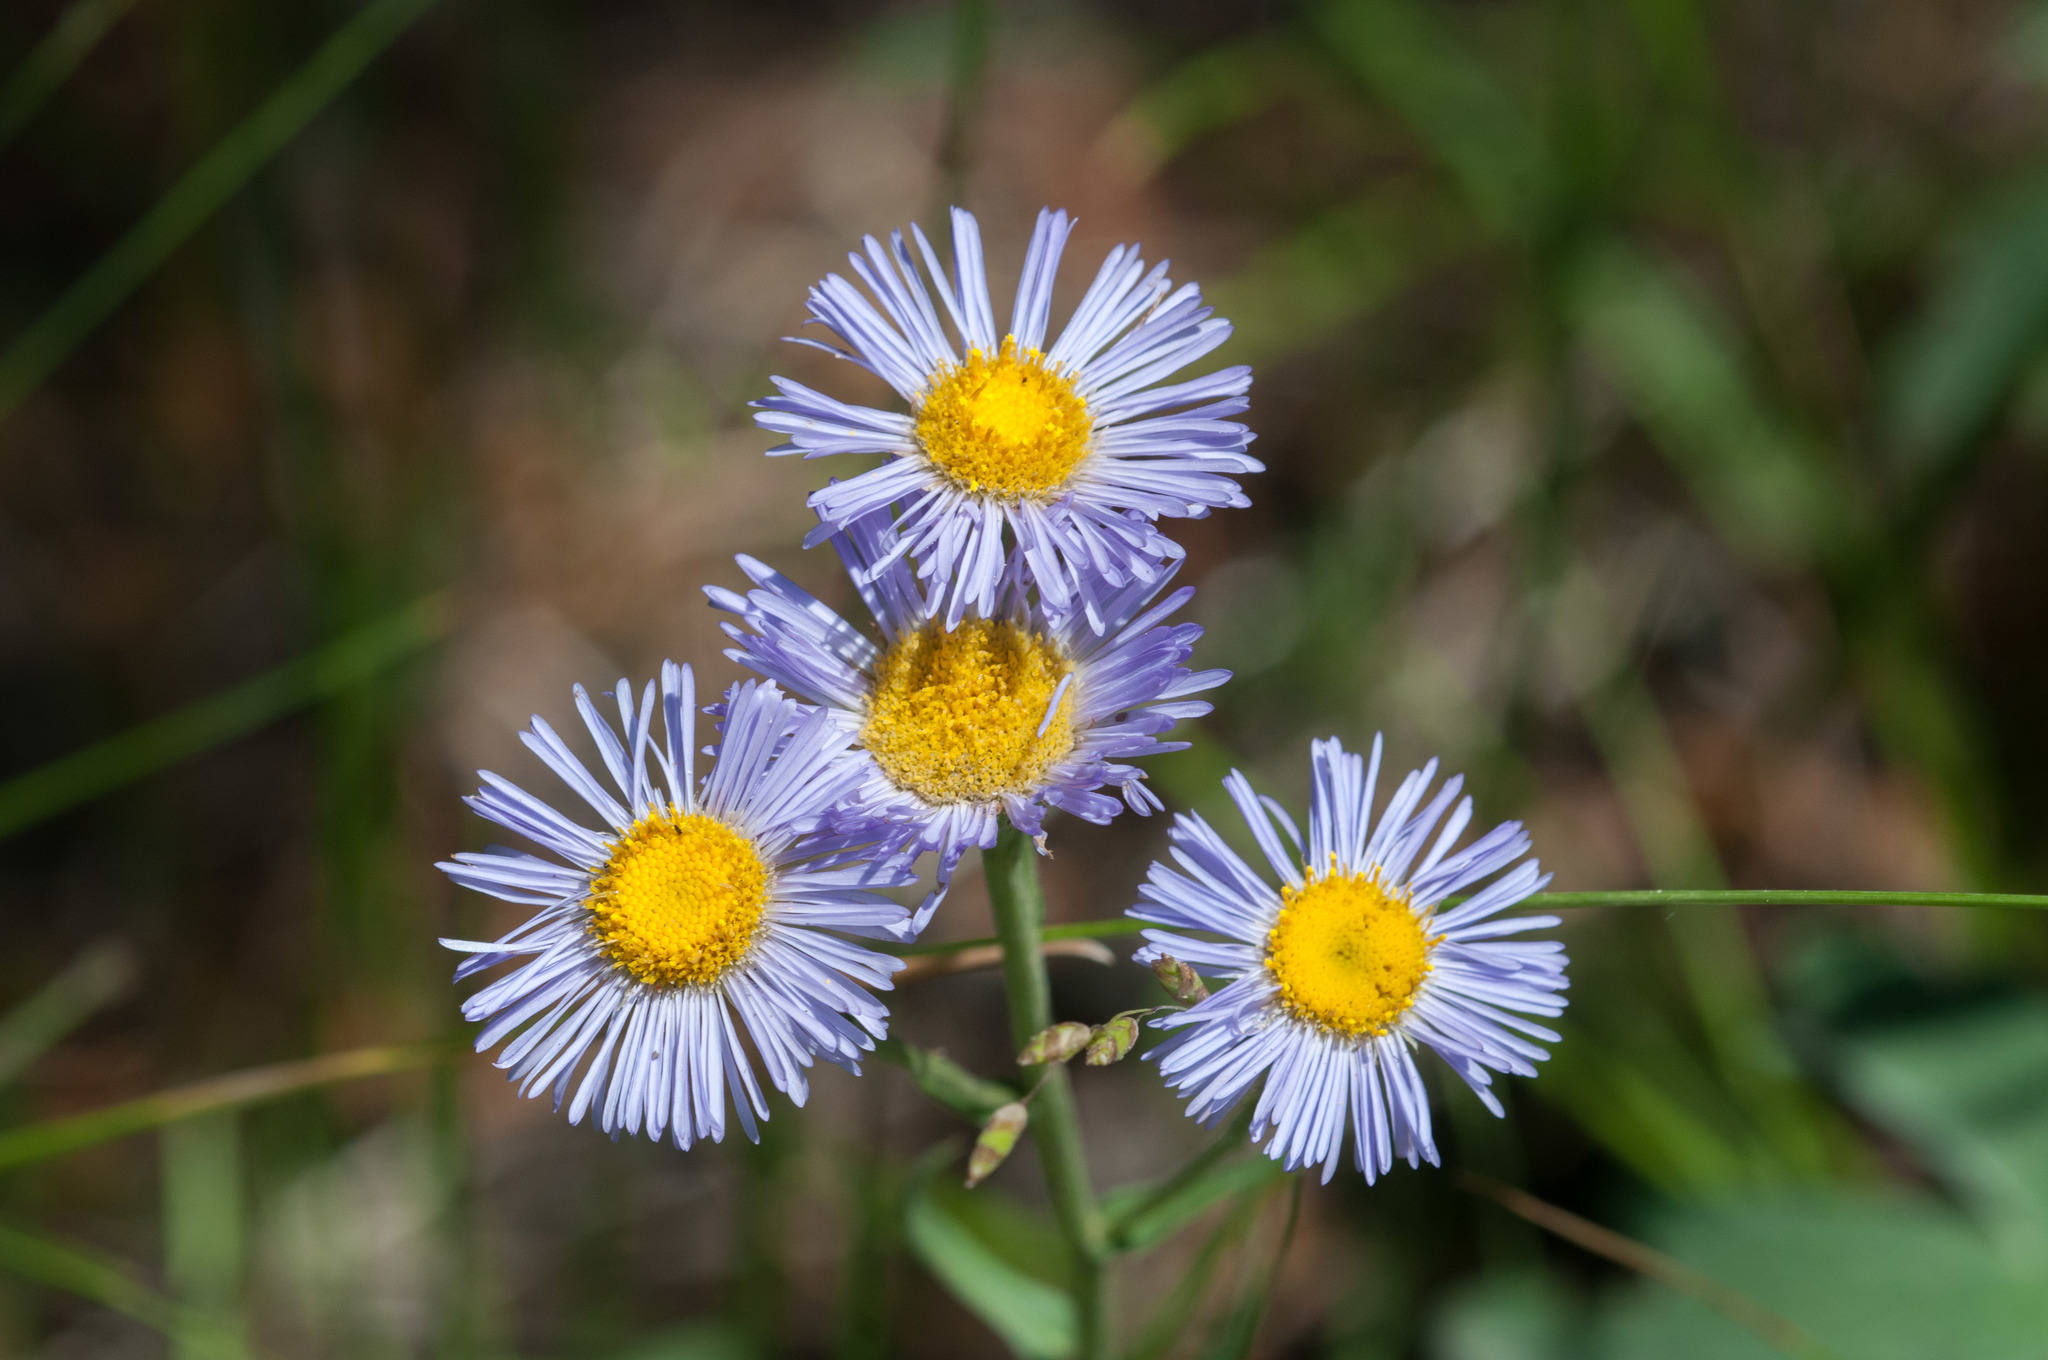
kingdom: Plantae
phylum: Tracheophyta
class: Magnoliopsida
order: Asterales
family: Asteraceae
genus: Erigeron
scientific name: Erigeron speciosus
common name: Aspen fleabane
